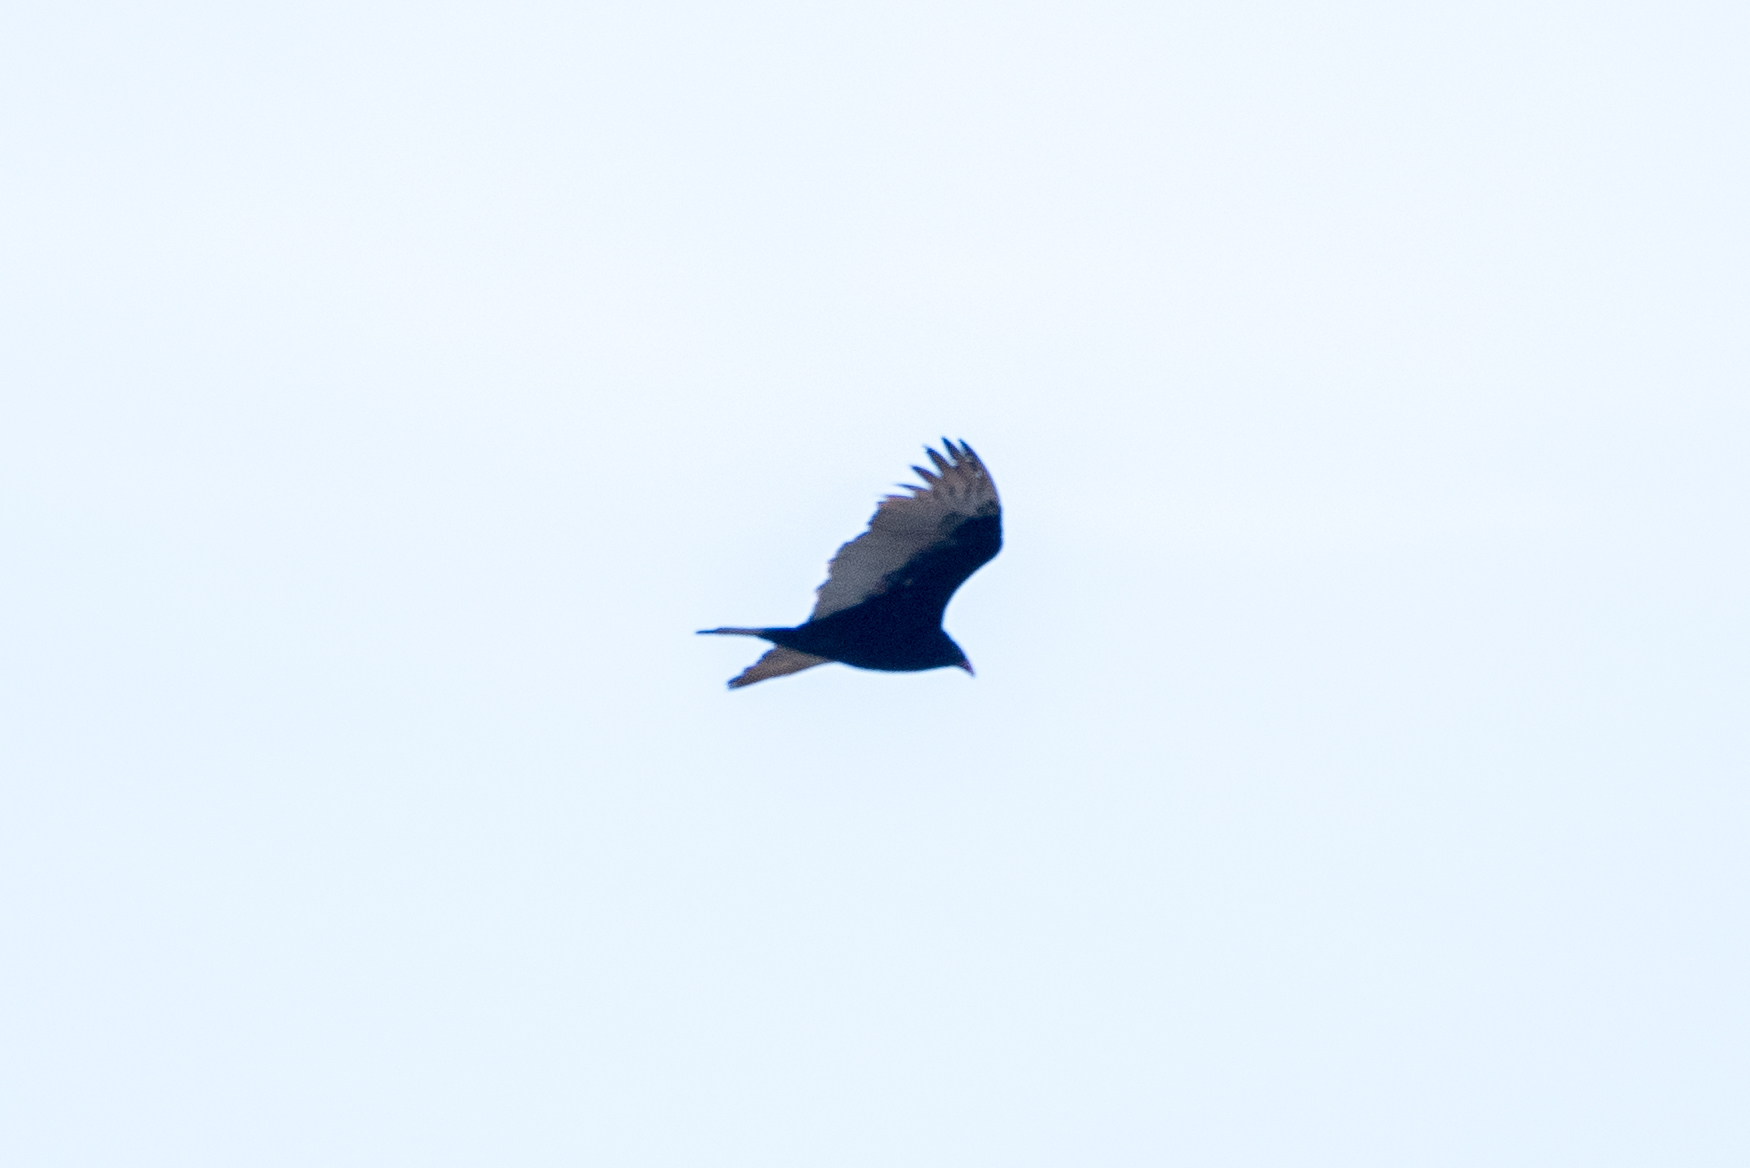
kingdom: Animalia
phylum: Chordata
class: Aves
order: Accipitriformes
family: Cathartidae
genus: Cathartes
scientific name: Cathartes aura
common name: Turkey vulture
